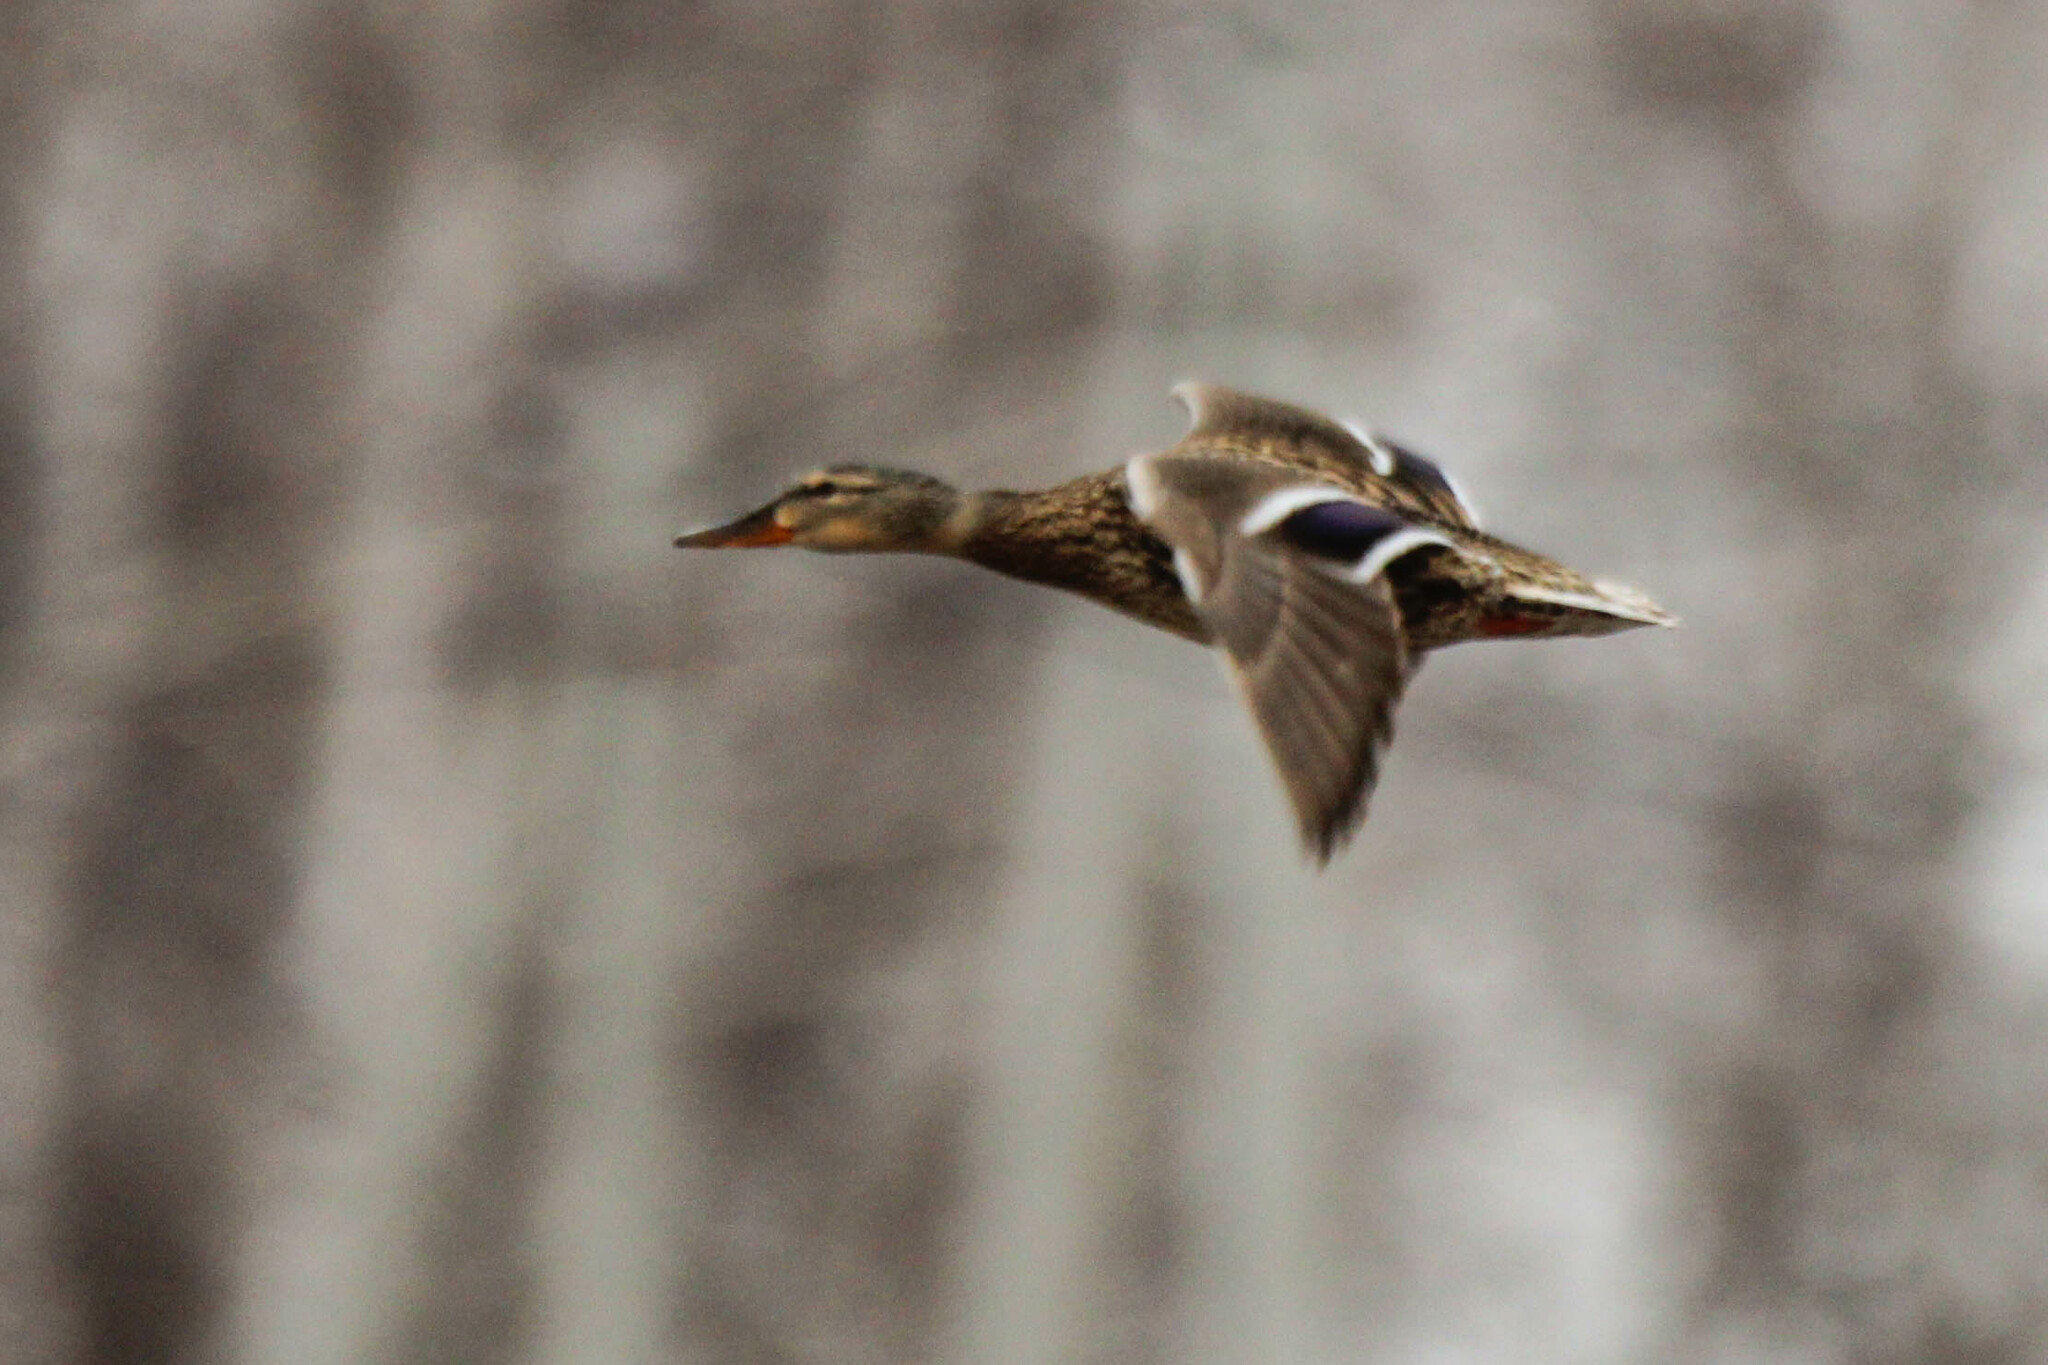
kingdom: Animalia
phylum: Chordata
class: Aves
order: Anseriformes
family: Anatidae
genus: Anas
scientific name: Anas platyrhynchos
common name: Mallard
